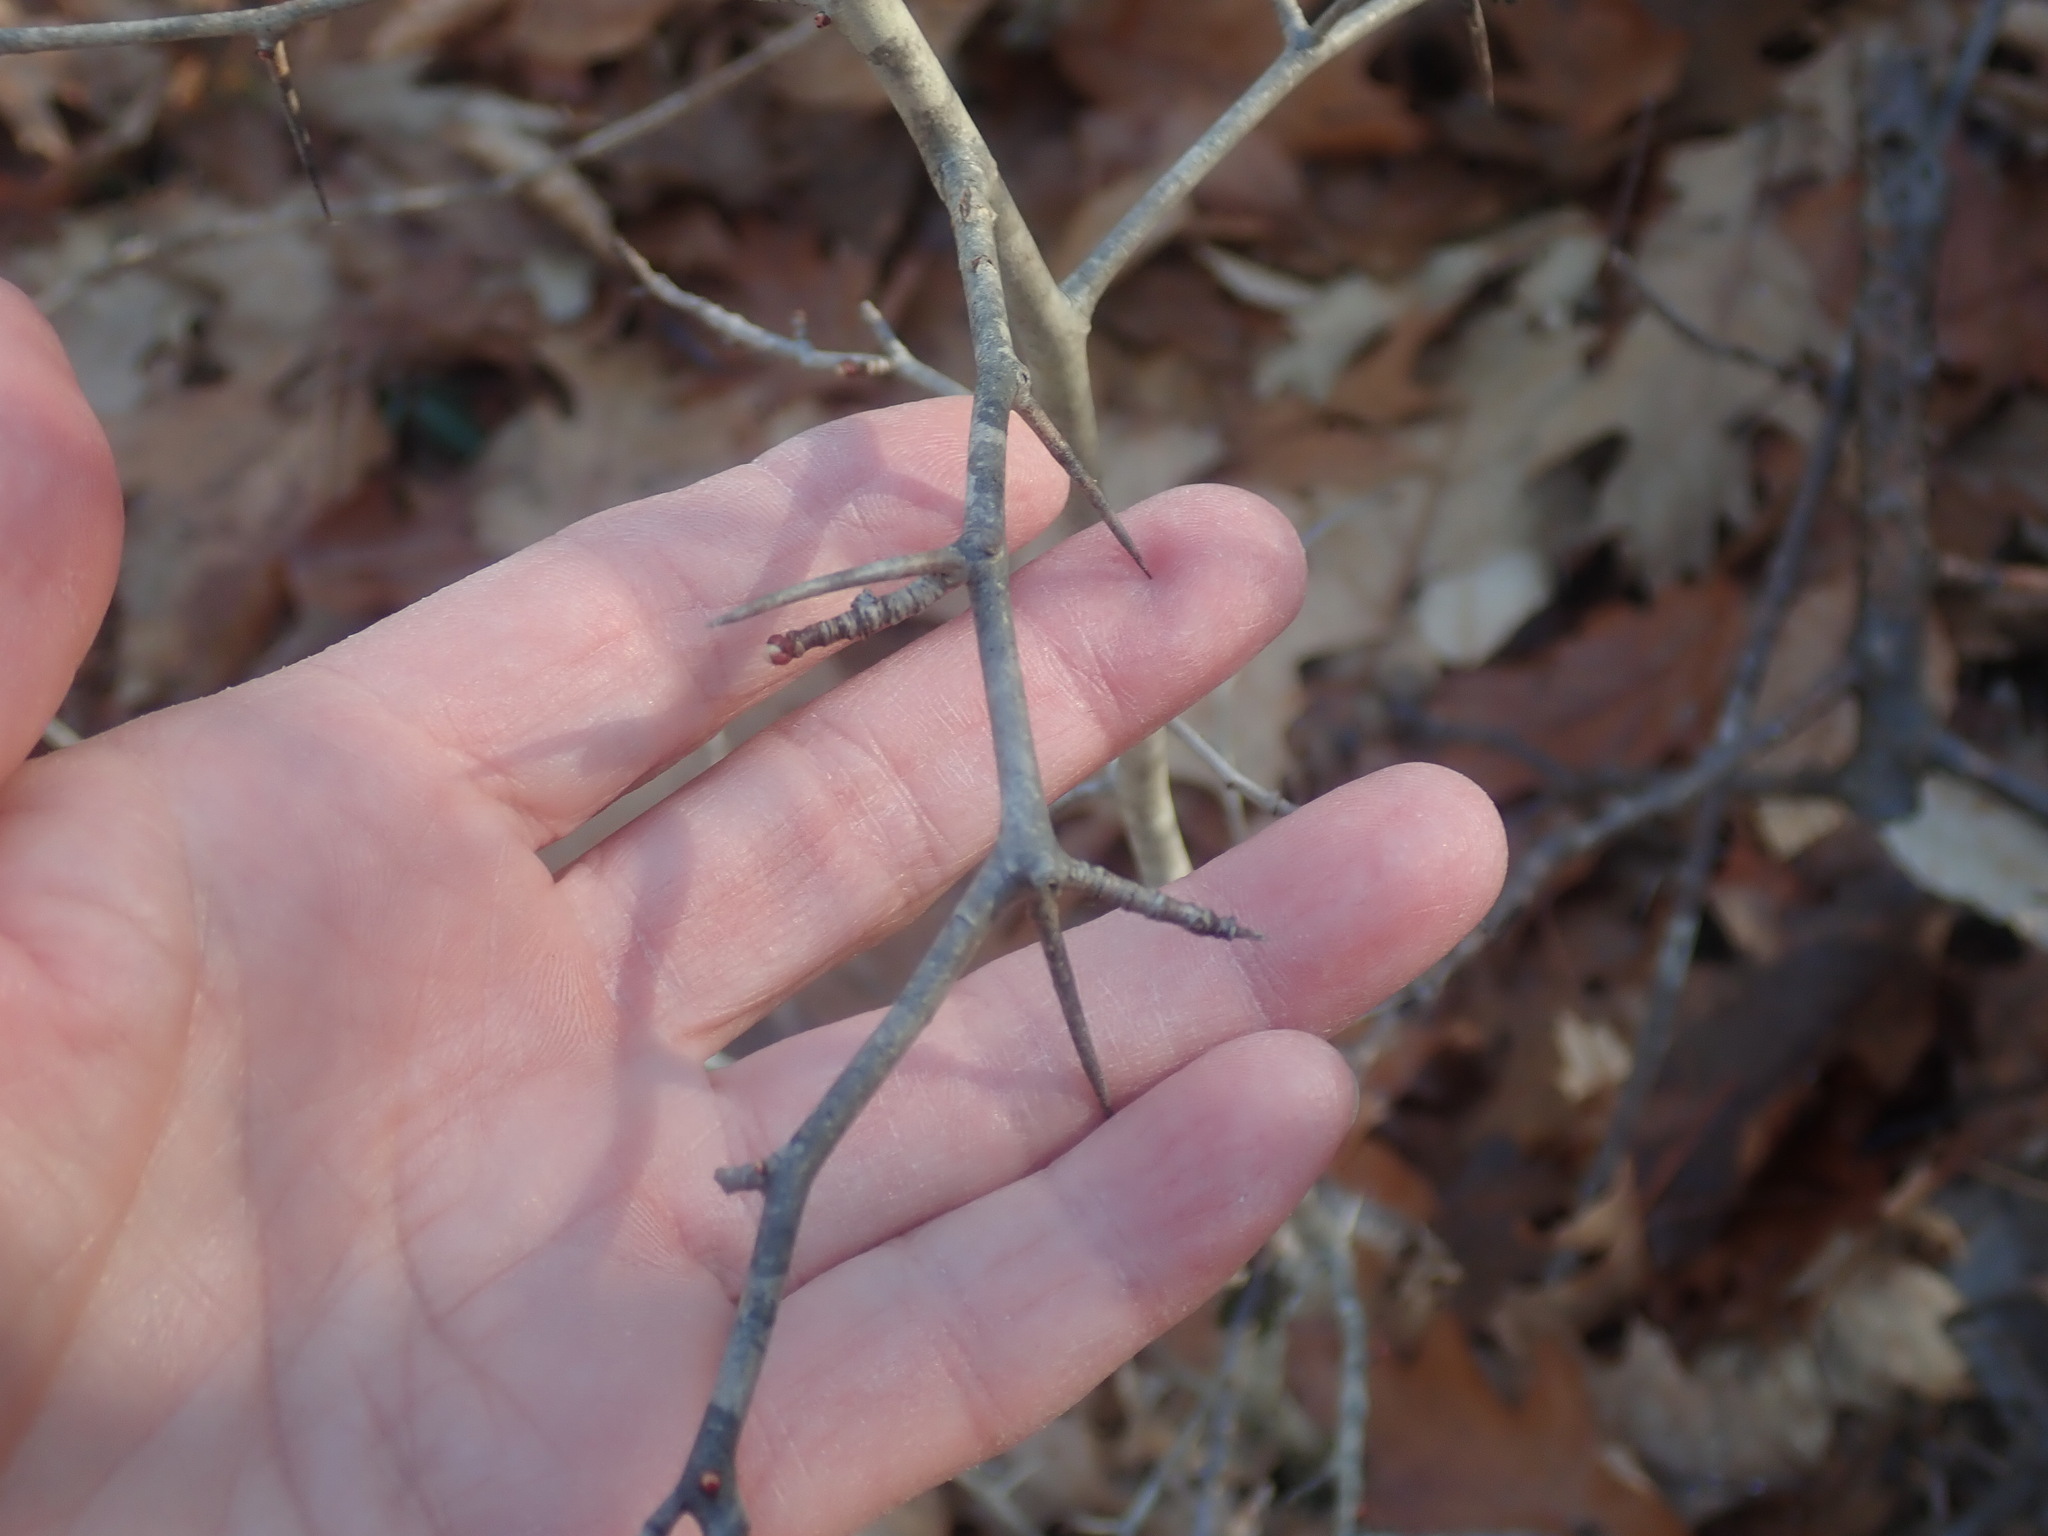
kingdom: Plantae
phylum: Tracheophyta
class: Magnoliopsida
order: Rosales
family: Rosaceae
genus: Crataegus
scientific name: Crataegus
